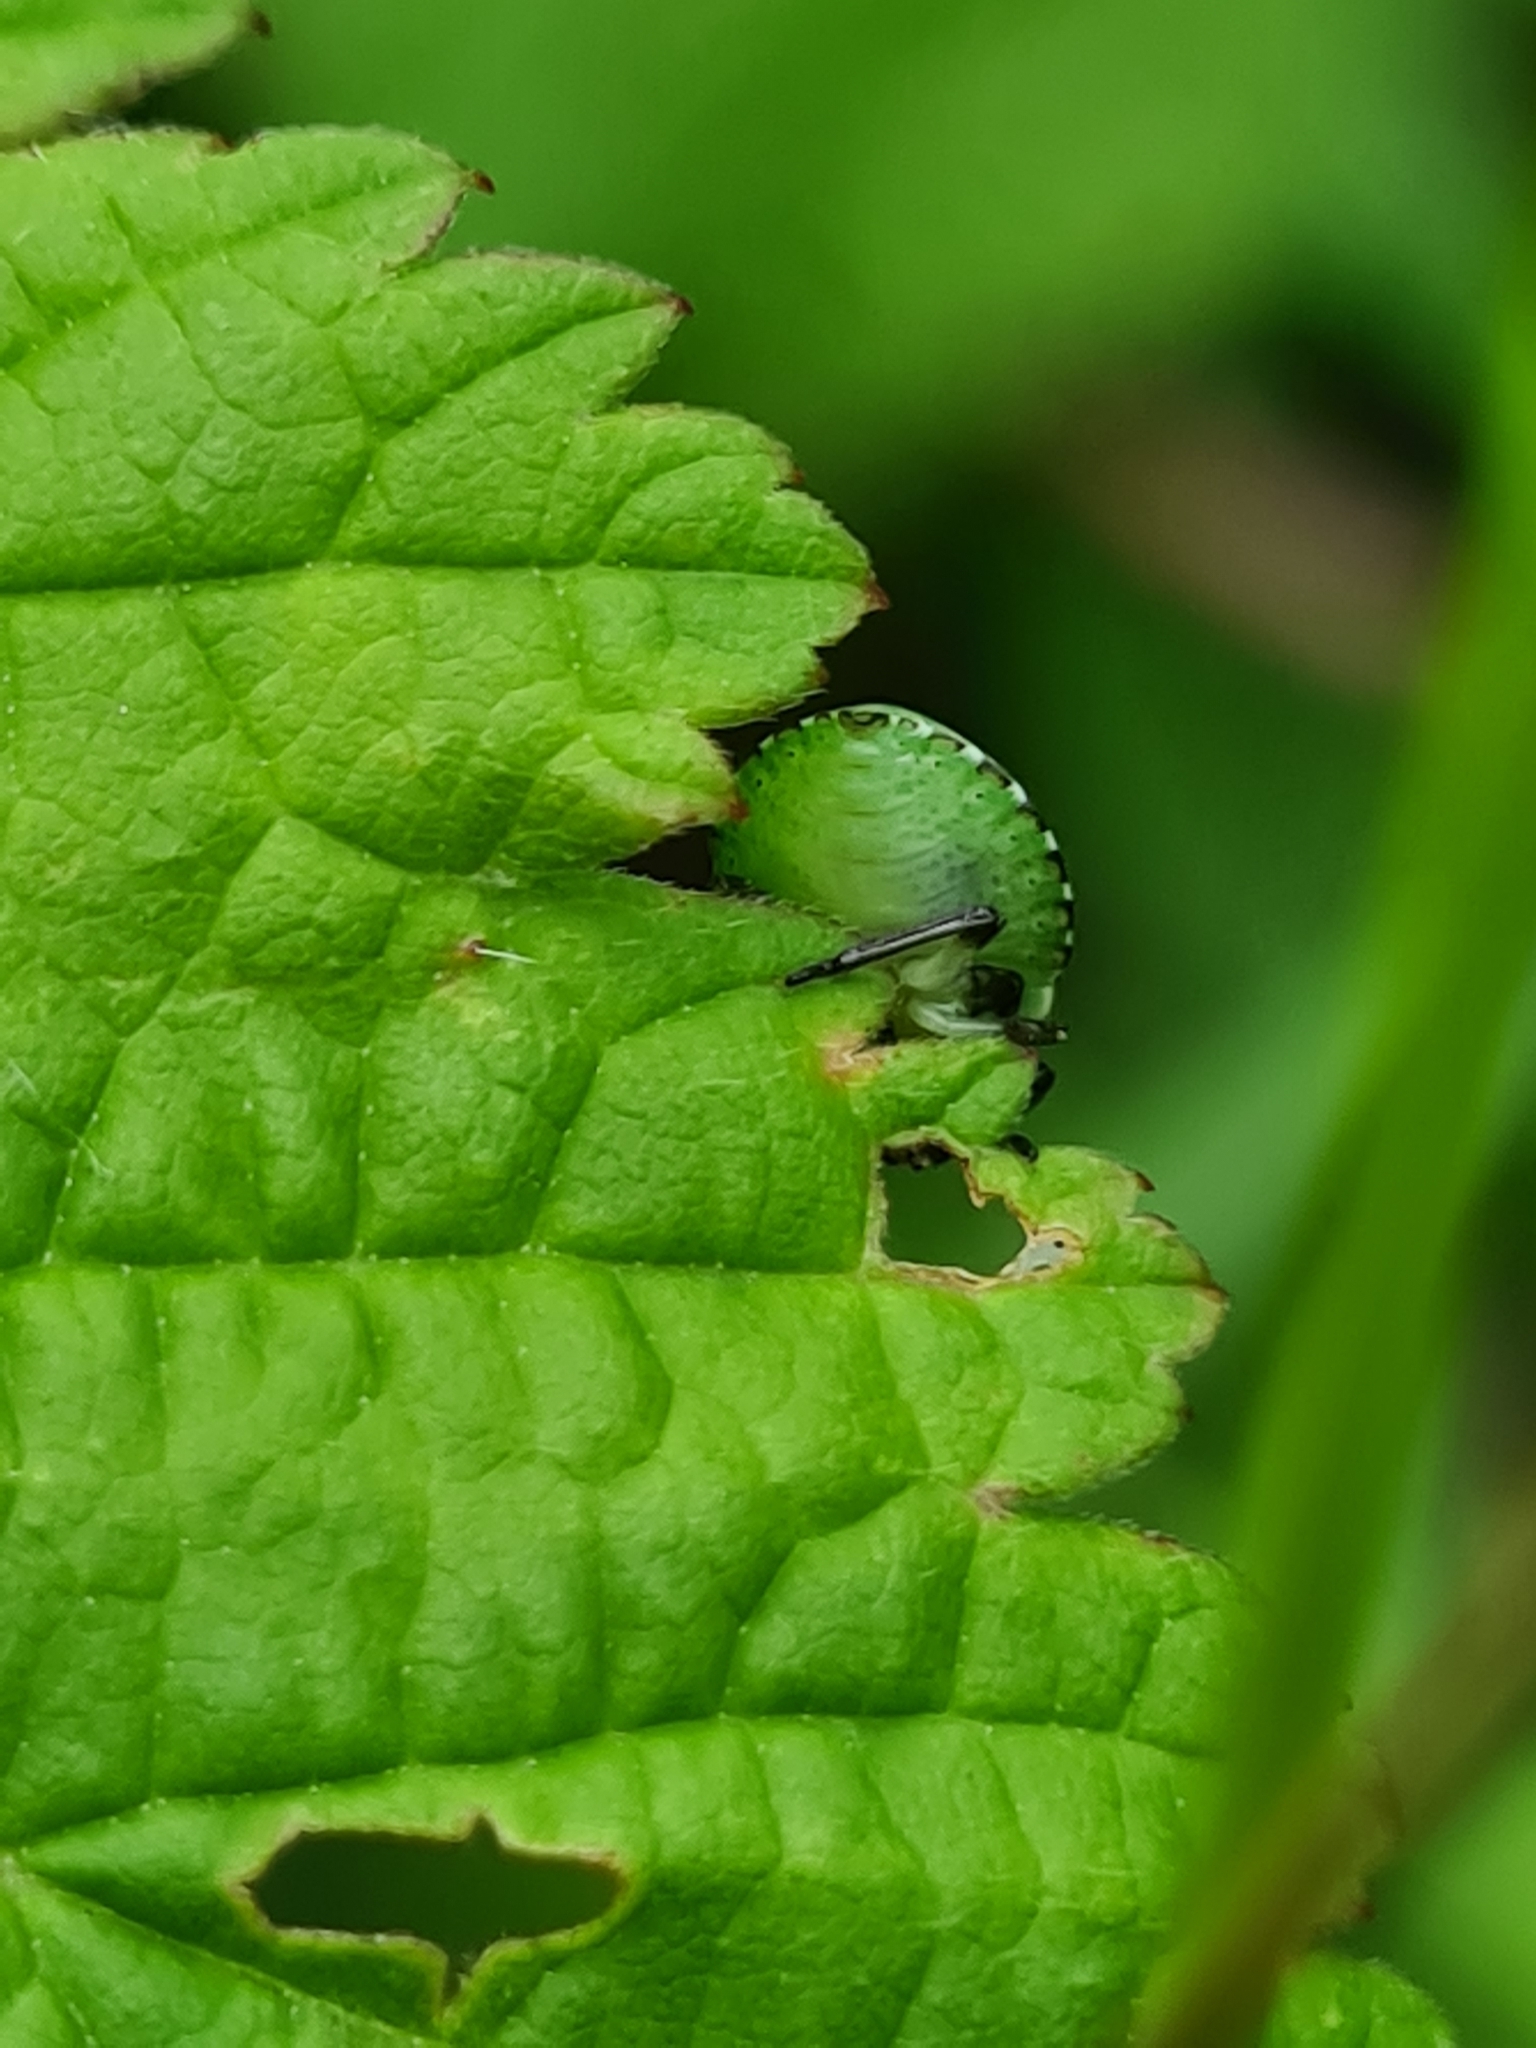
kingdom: Animalia
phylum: Arthropoda
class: Insecta
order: Hemiptera
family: Pentatomidae
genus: Palomena
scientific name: Palomena prasina
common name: Green shieldbug
